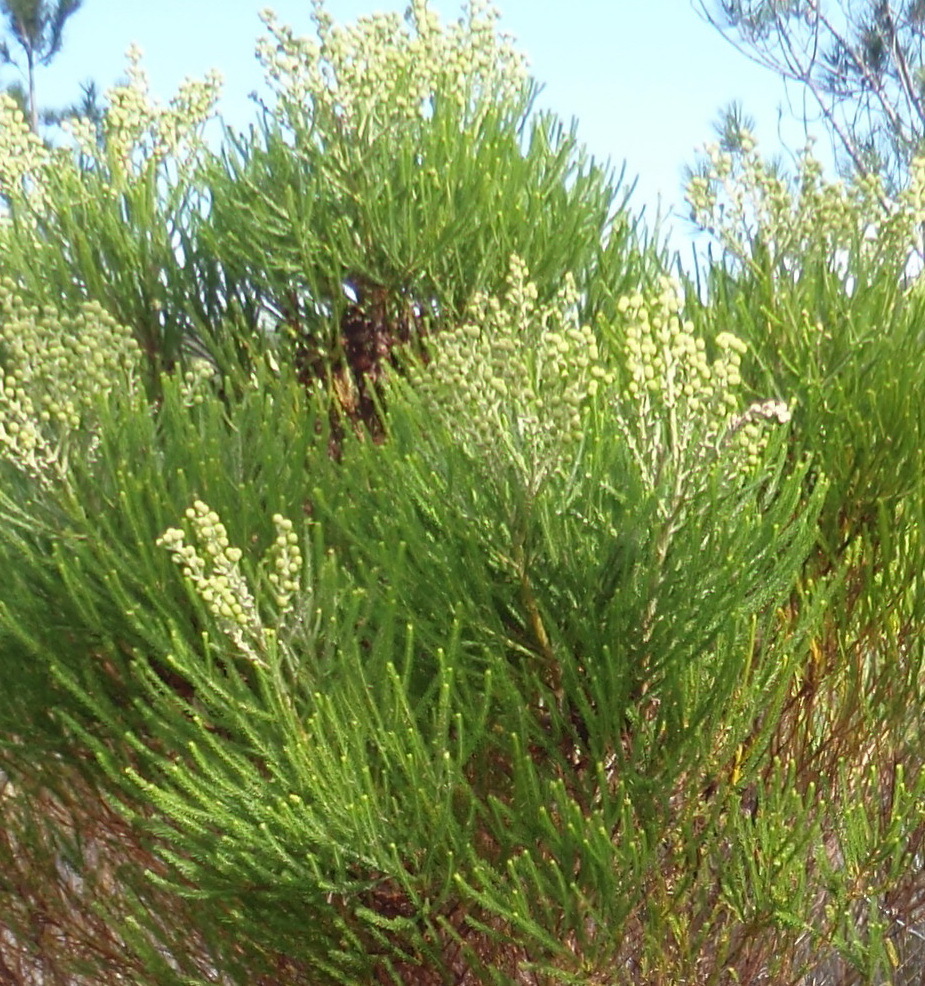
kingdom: Plantae
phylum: Tracheophyta
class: Magnoliopsida
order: Bruniales
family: Bruniaceae
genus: Berzelia
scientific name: Berzelia lanuginosa
